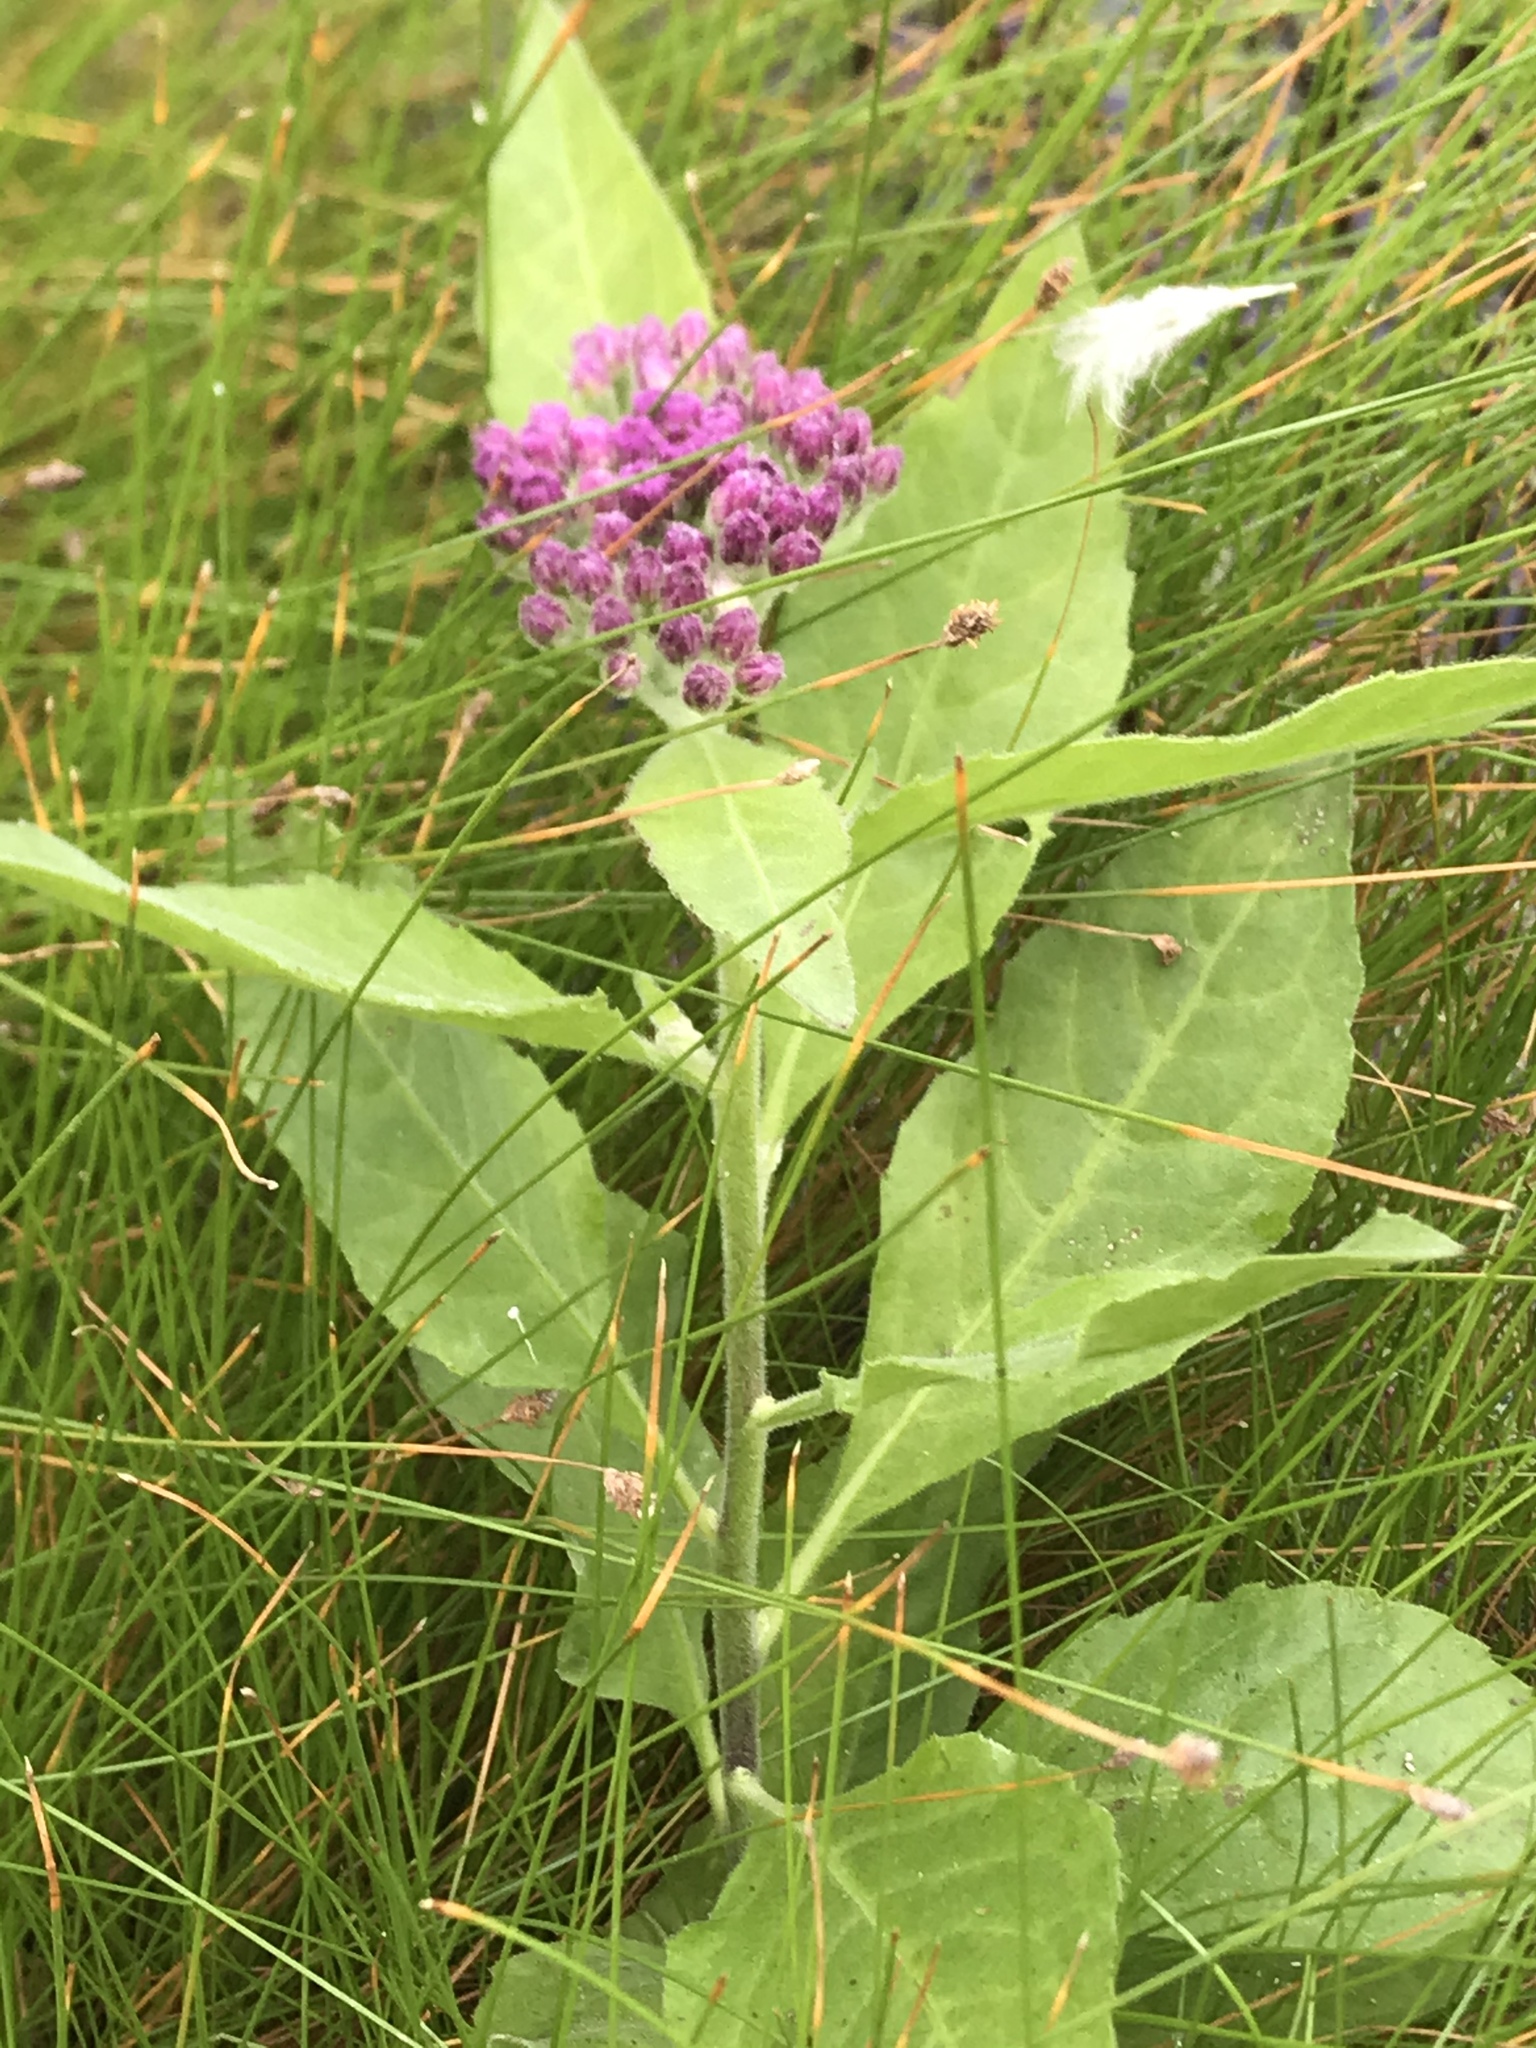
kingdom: Plantae
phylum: Tracheophyta
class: Magnoliopsida
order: Asterales
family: Asteraceae
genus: Pluchea
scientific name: Pluchea odorata
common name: Saltmarsh fleabane
